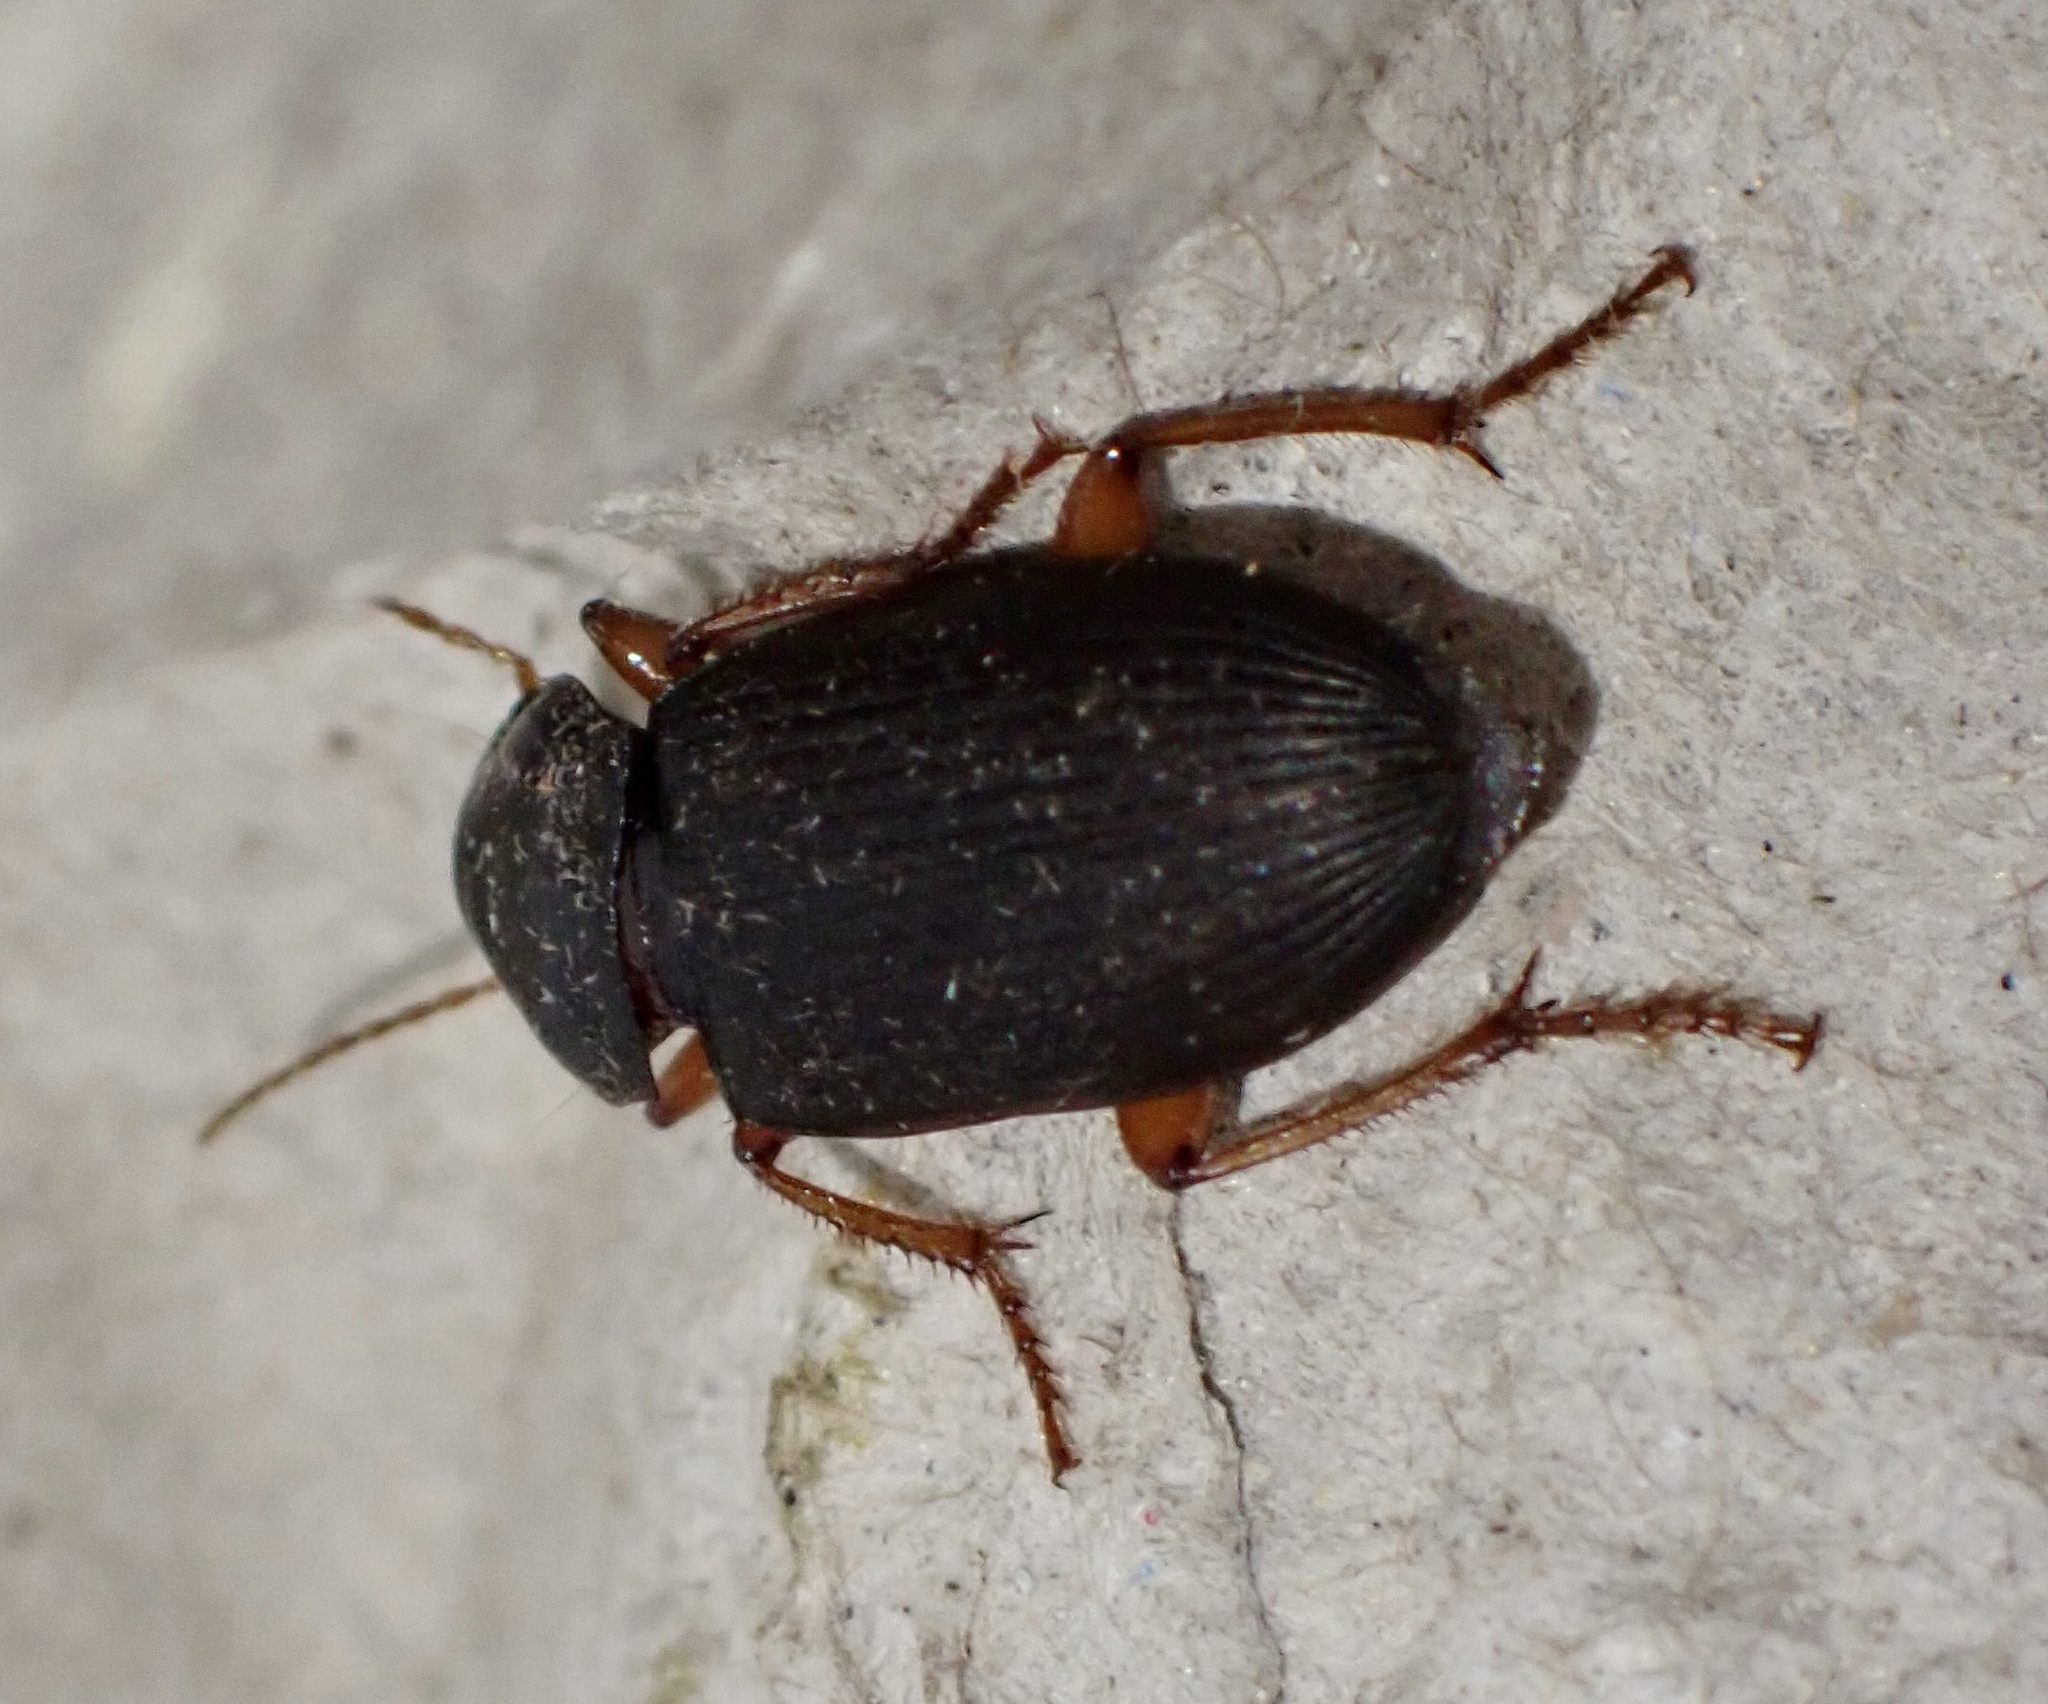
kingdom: Animalia
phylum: Arthropoda
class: Insecta
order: Coleoptera
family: Carabidae
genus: Harpalus
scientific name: Harpalus rufipes
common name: Strawberry harp ground beetle
